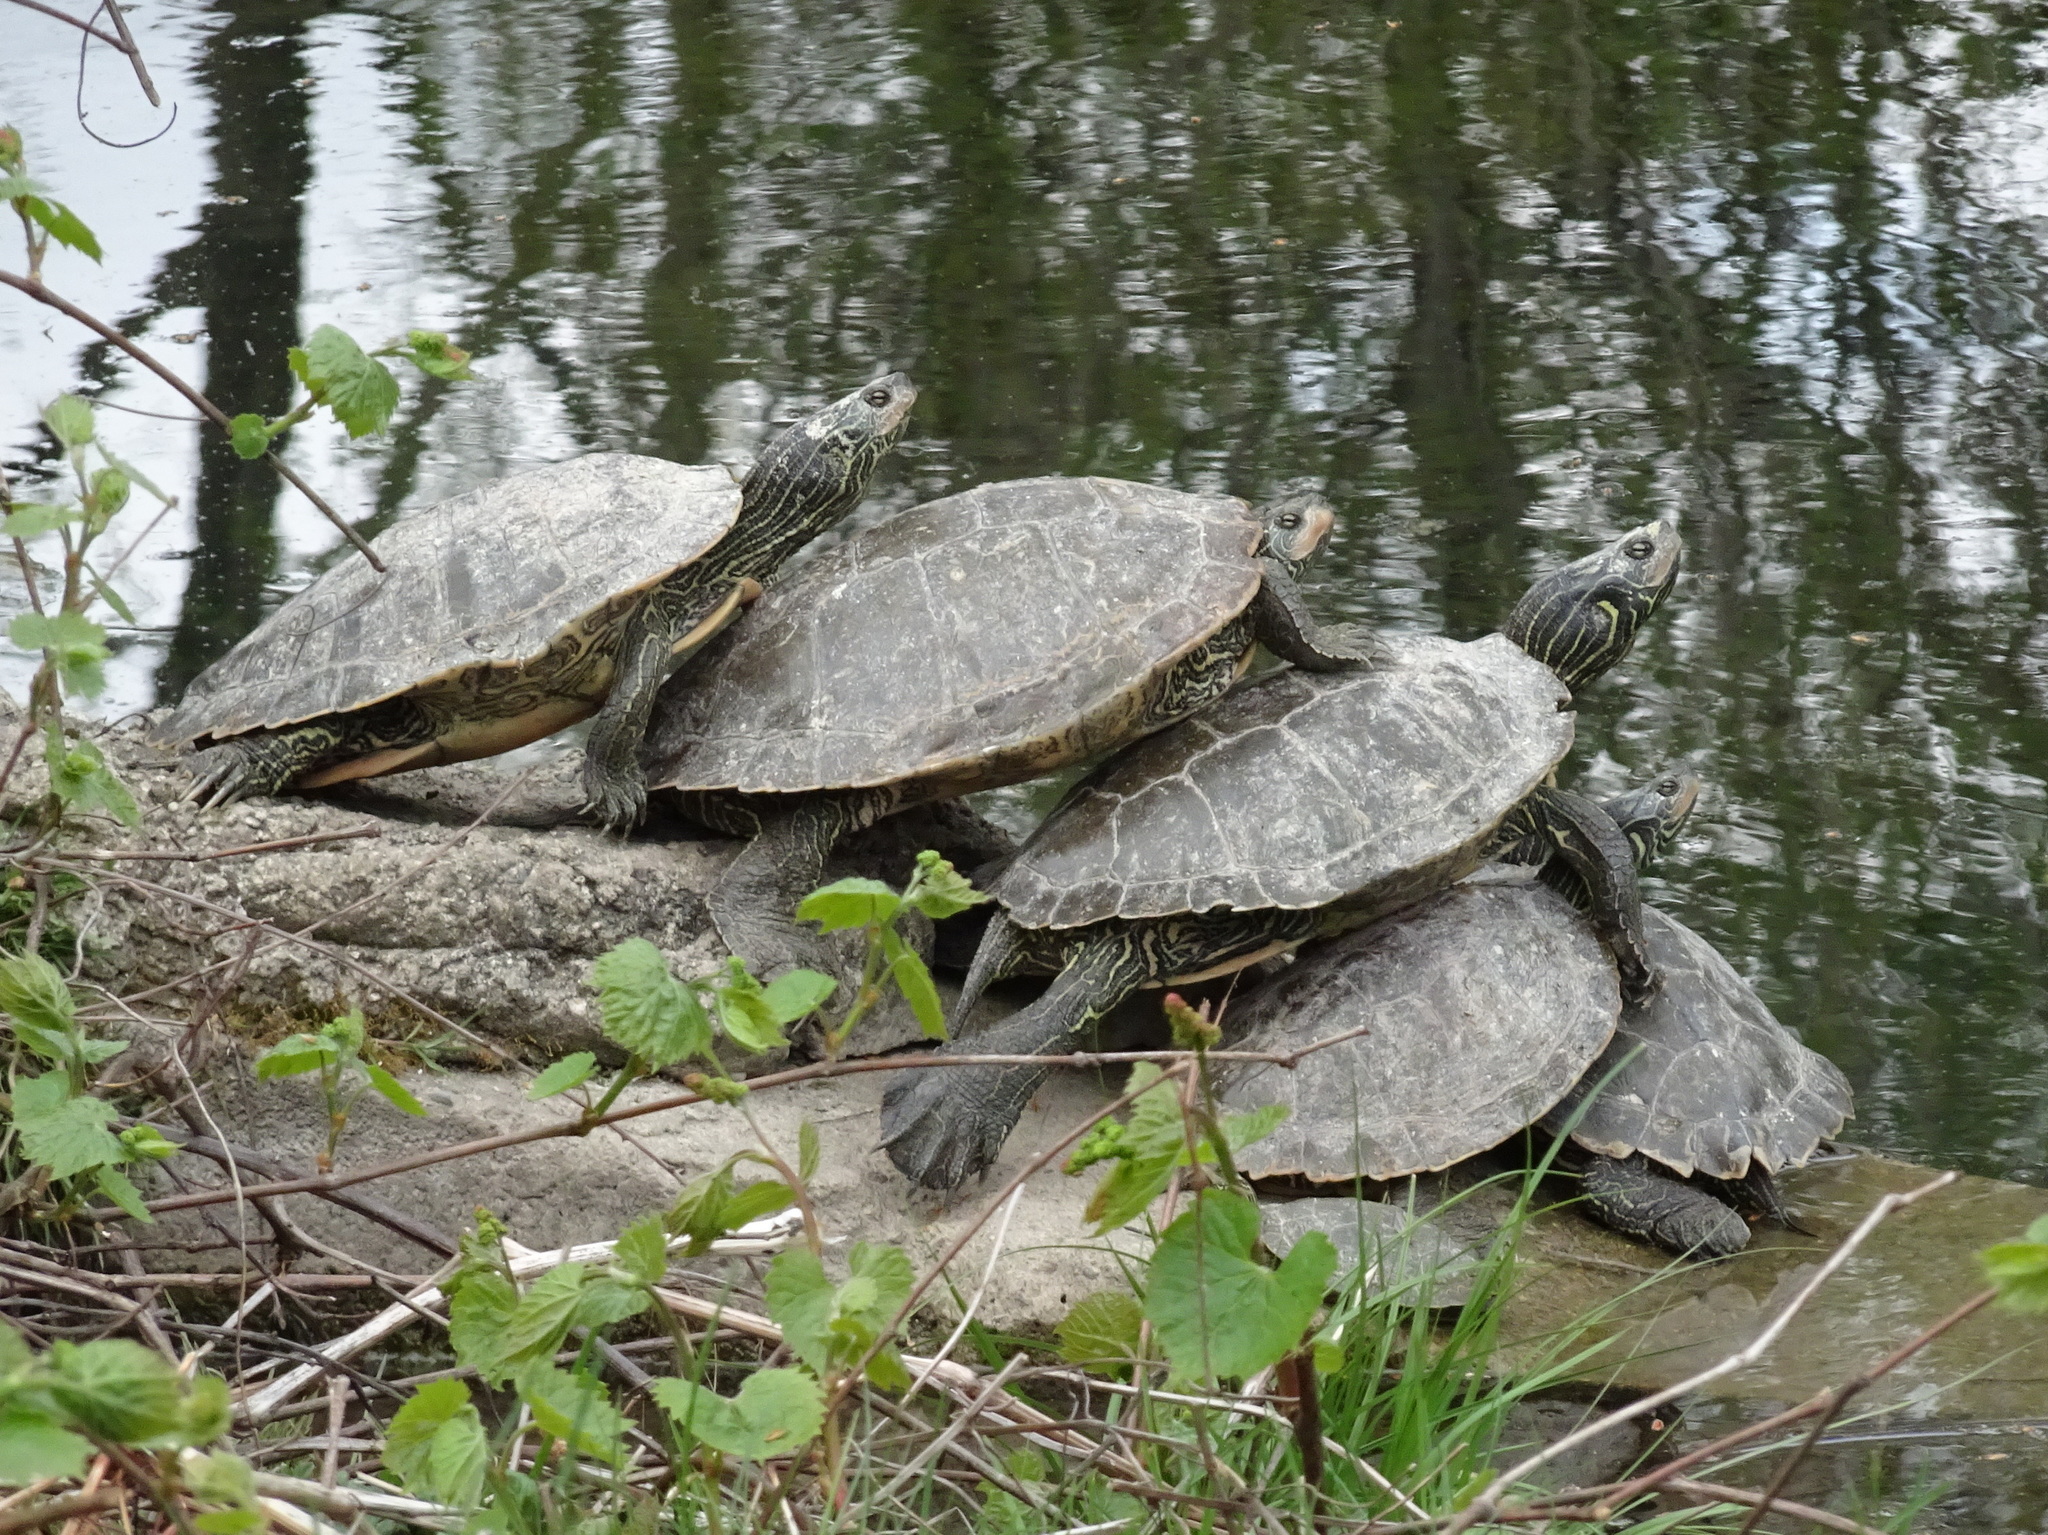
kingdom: Animalia
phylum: Chordata
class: Testudines
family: Emydidae
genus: Graptemys
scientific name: Graptemys geographica
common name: Common map turtle
